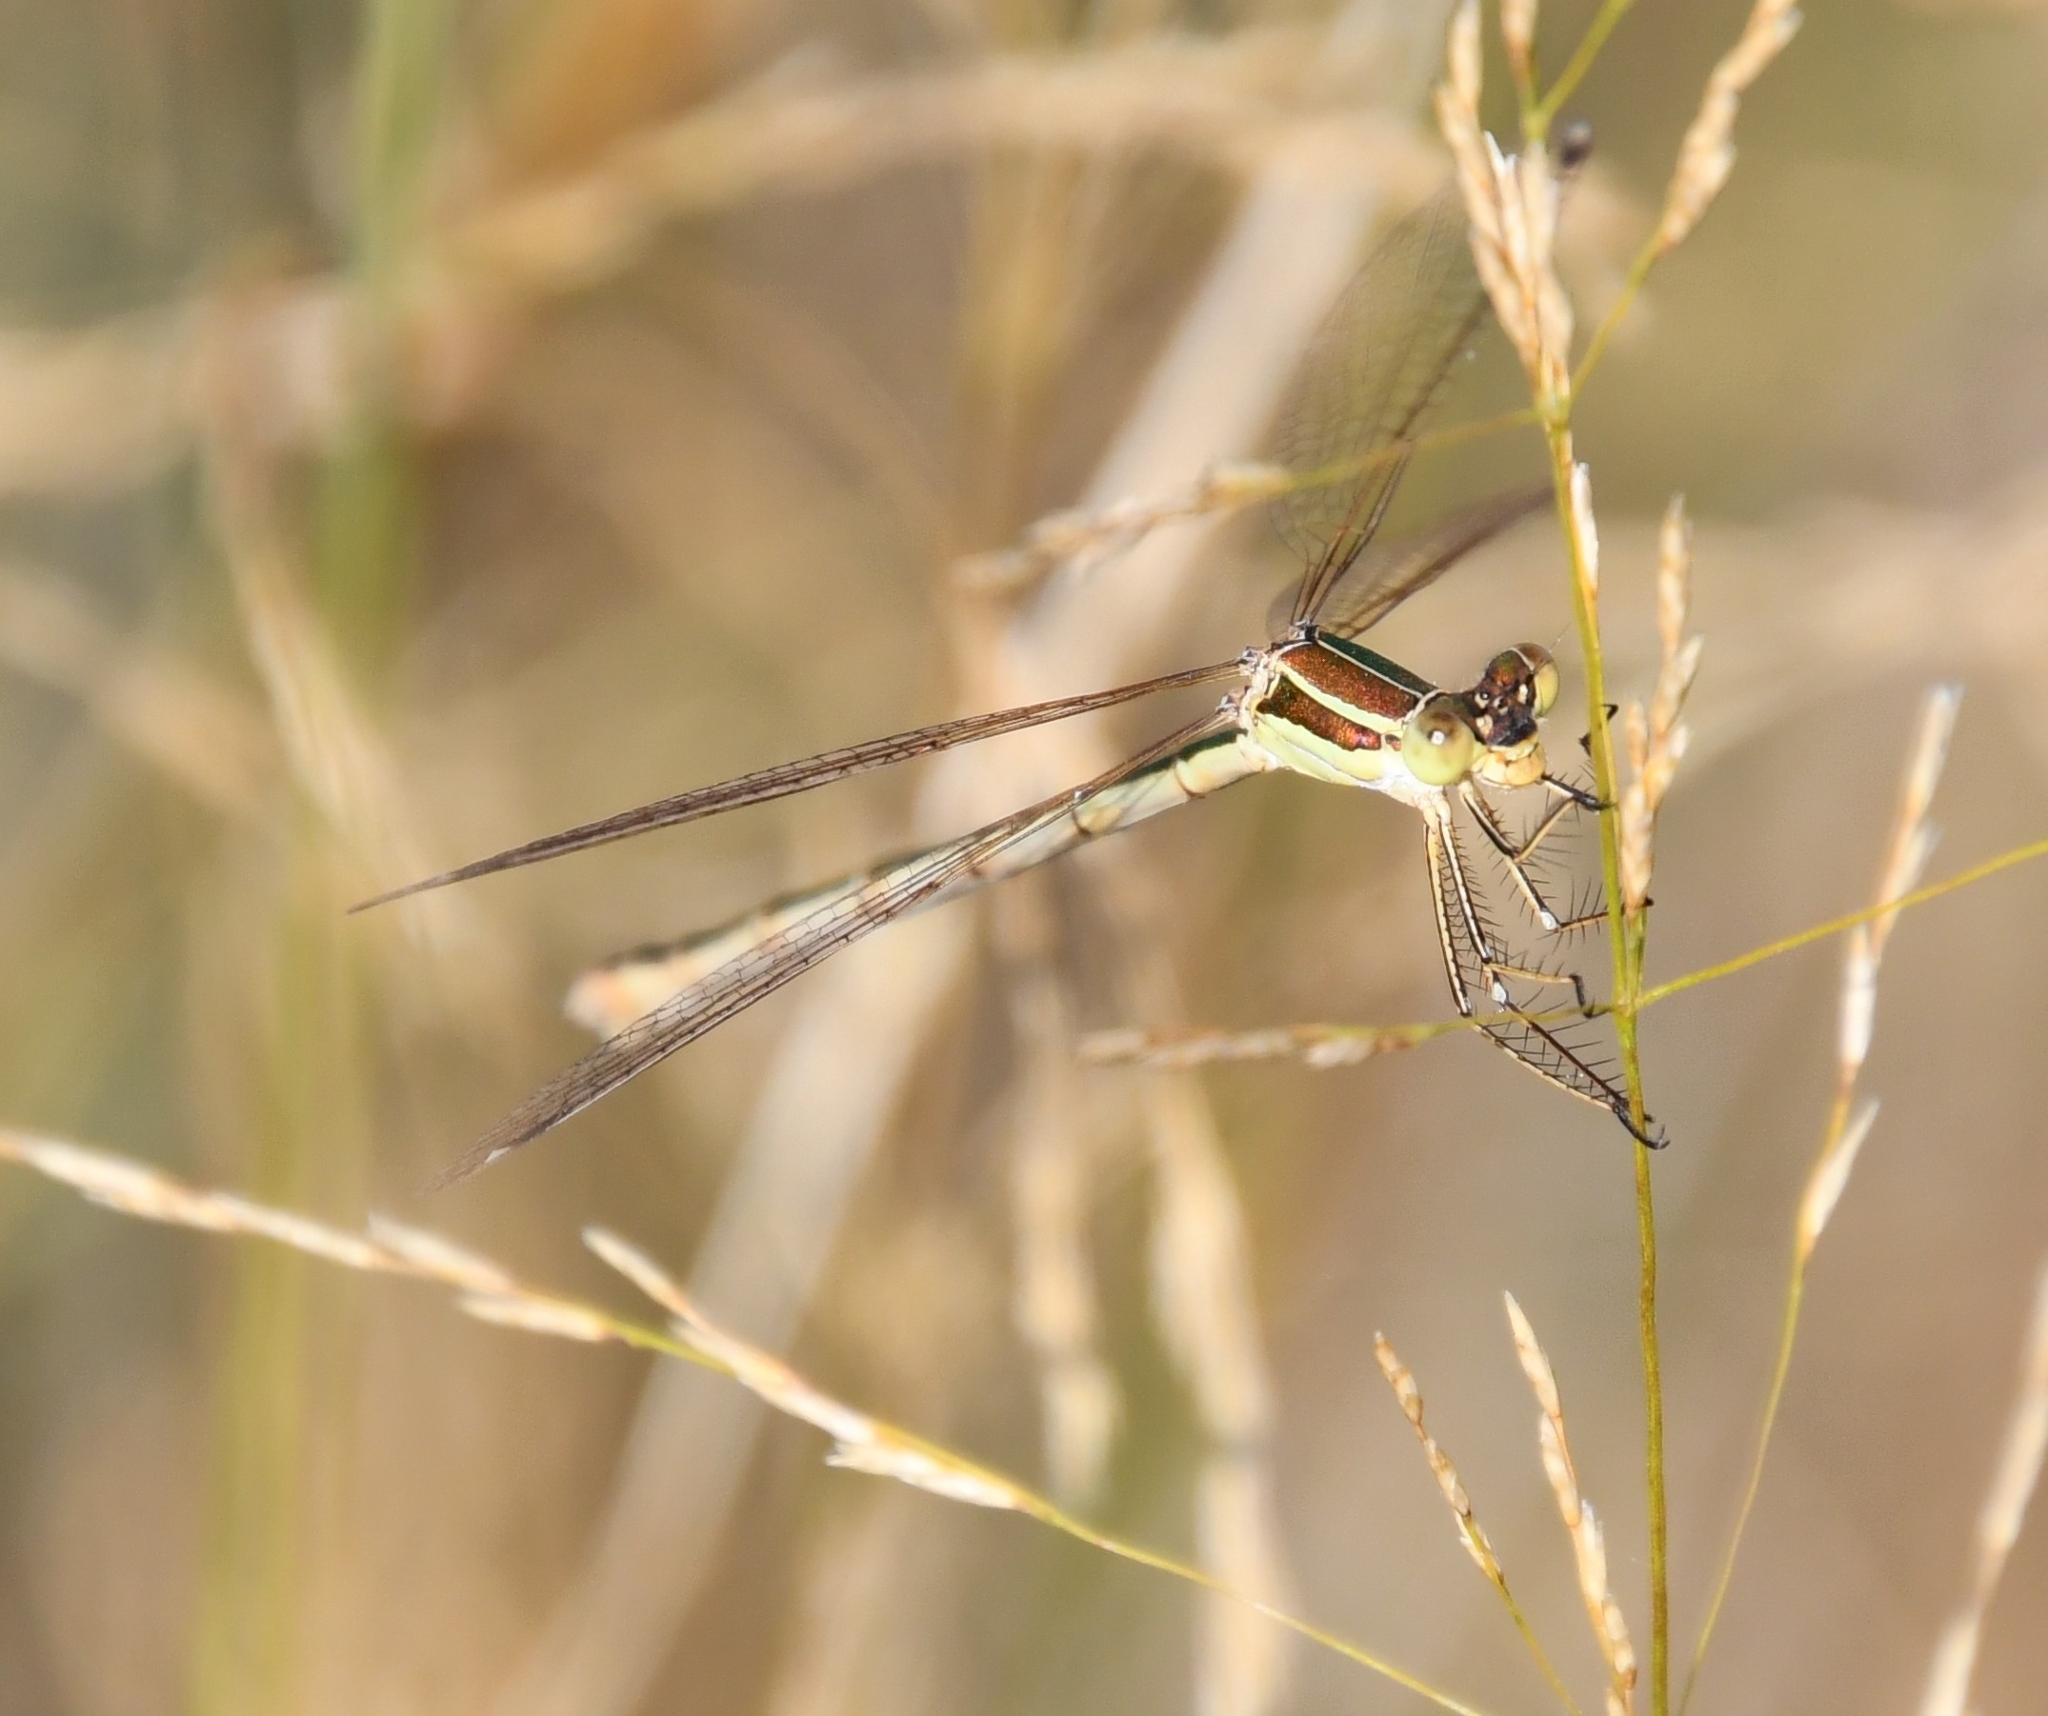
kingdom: Animalia
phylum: Arthropoda
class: Insecta
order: Odonata
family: Lestidae
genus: Lestes
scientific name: Lestes barbarus
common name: Migrant spreadwing
